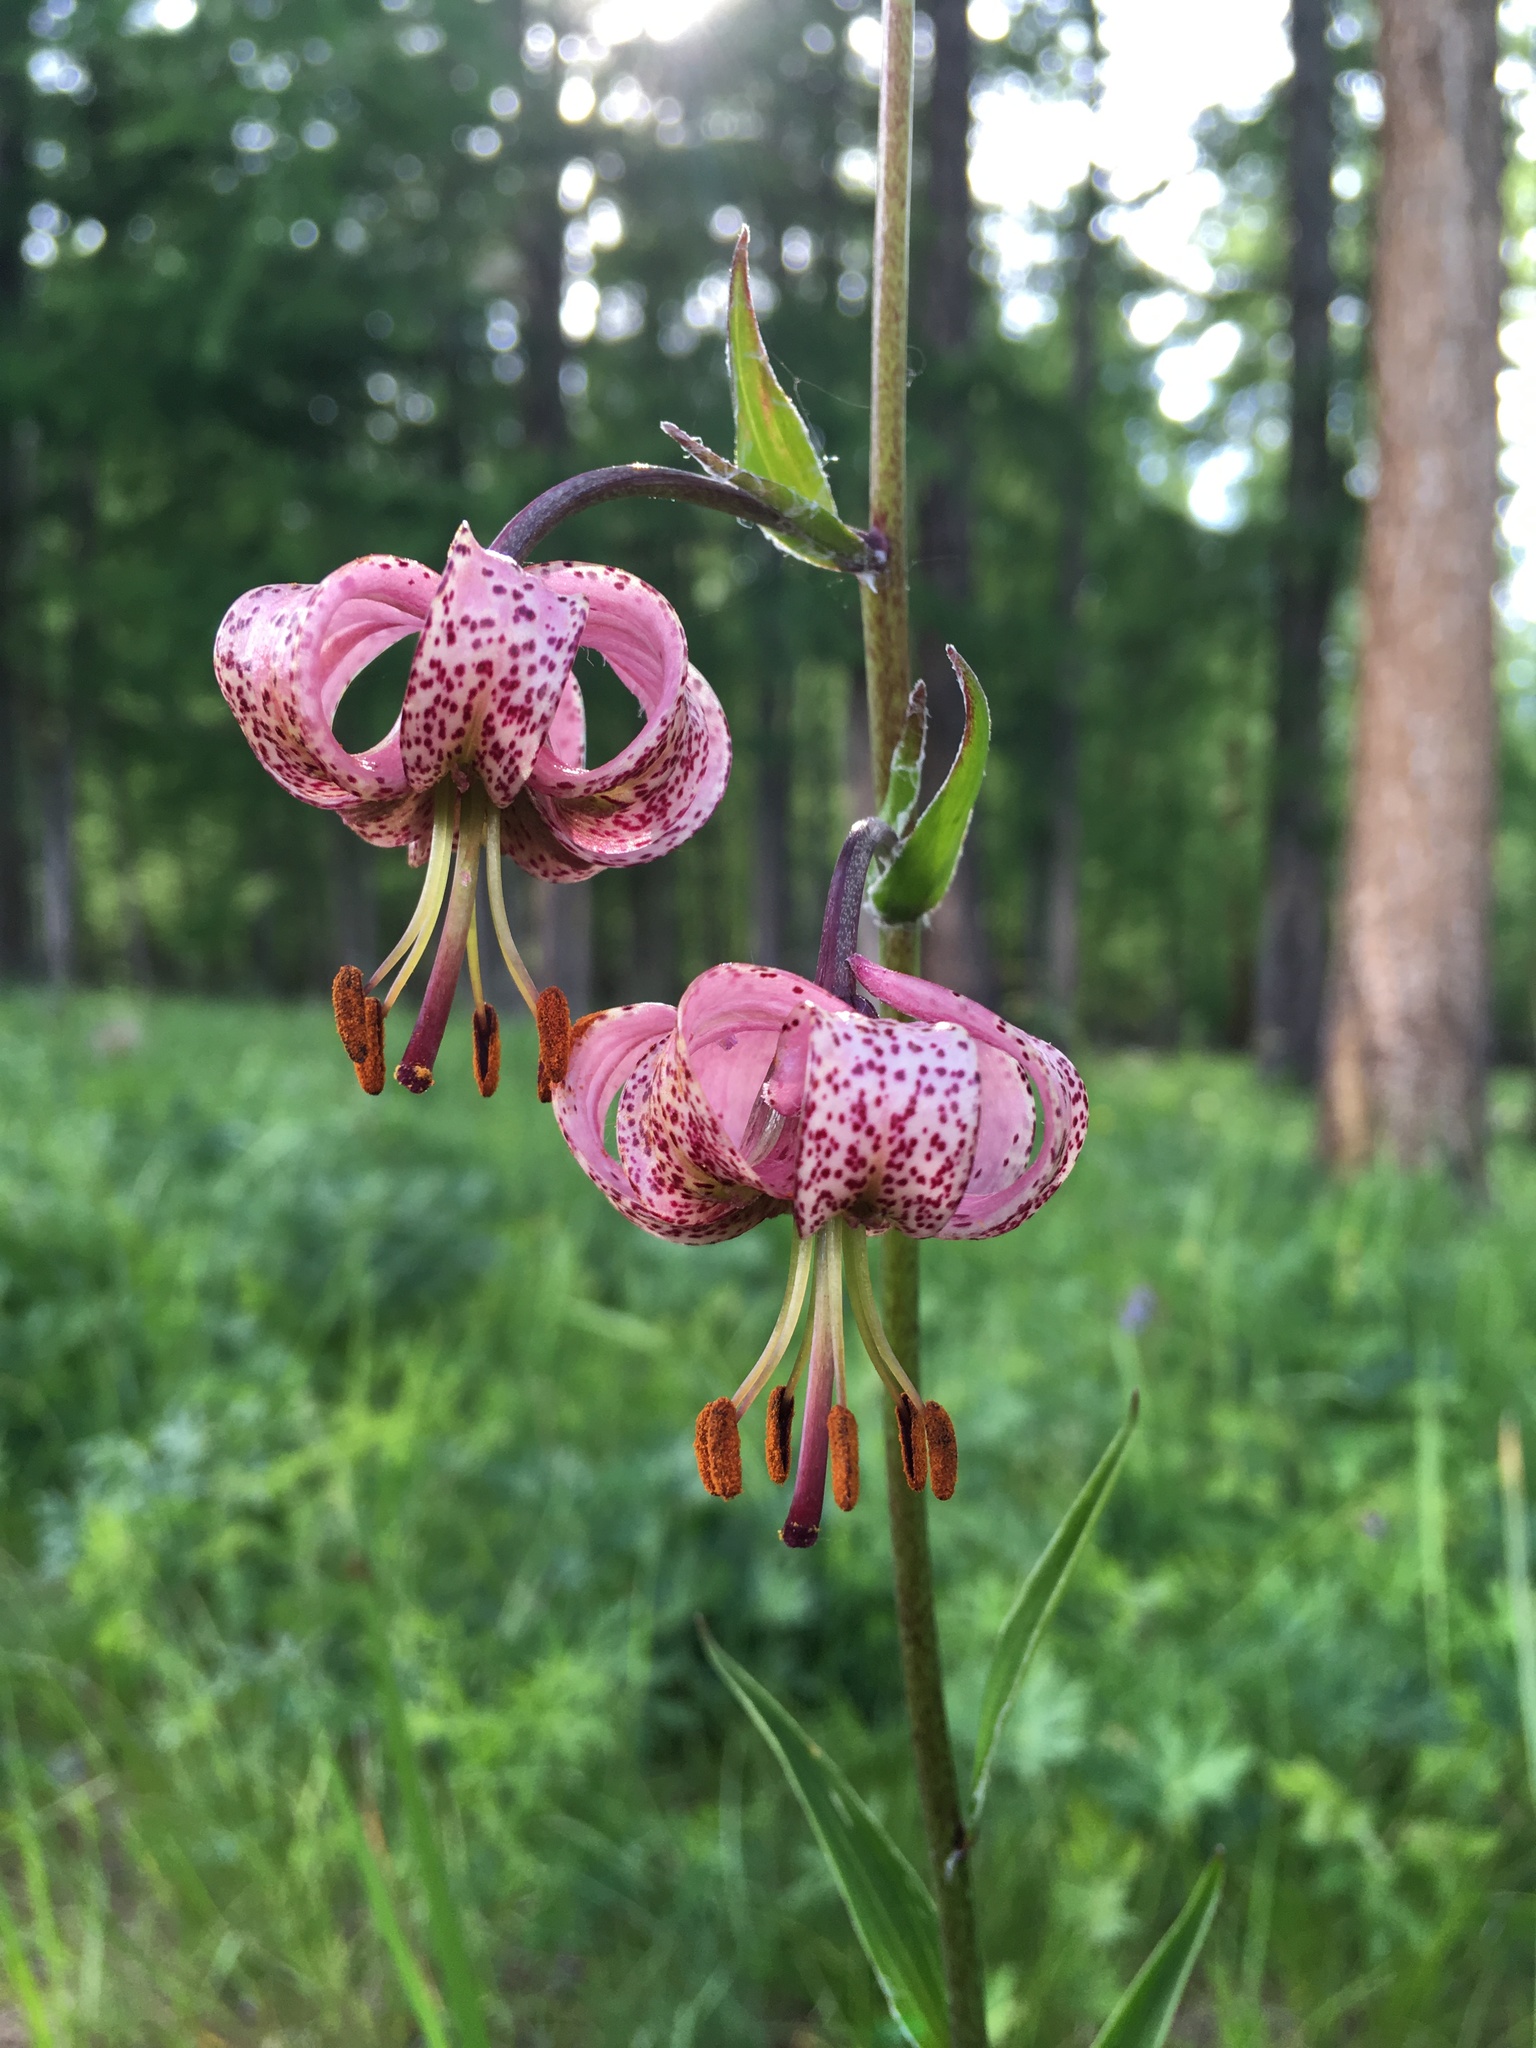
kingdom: Plantae
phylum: Tracheophyta
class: Liliopsida
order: Liliales
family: Liliaceae
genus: Lilium
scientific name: Lilium martagon
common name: Martagon lily
